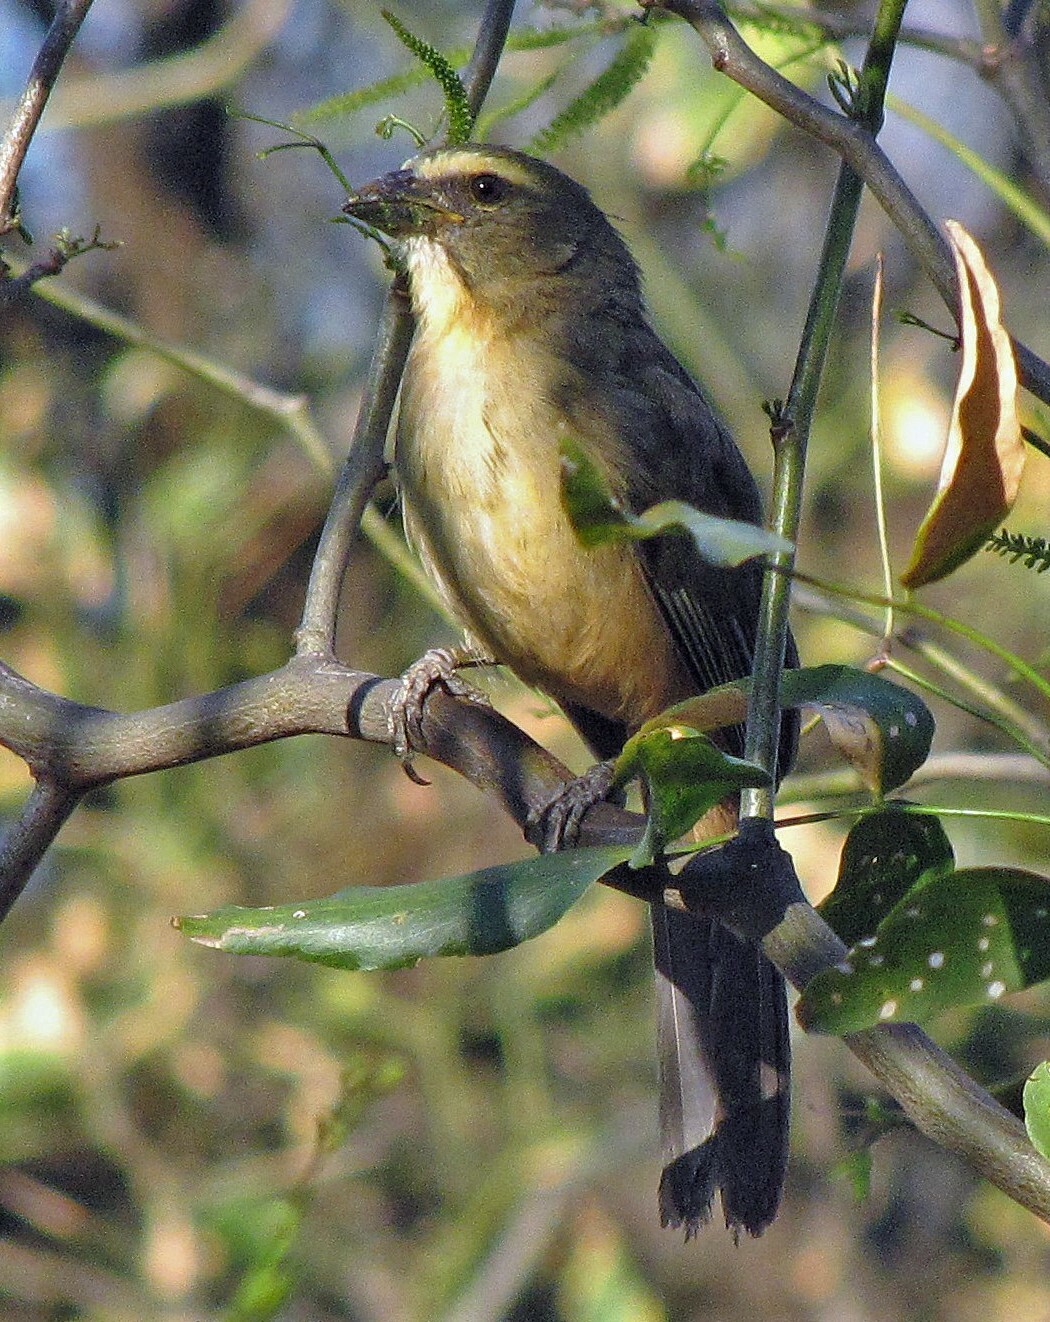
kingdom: Animalia
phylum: Chordata
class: Aves
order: Passeriformes
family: Thraupidae
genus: Saltator
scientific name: Saltator coerulescens
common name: Grayish saltator
